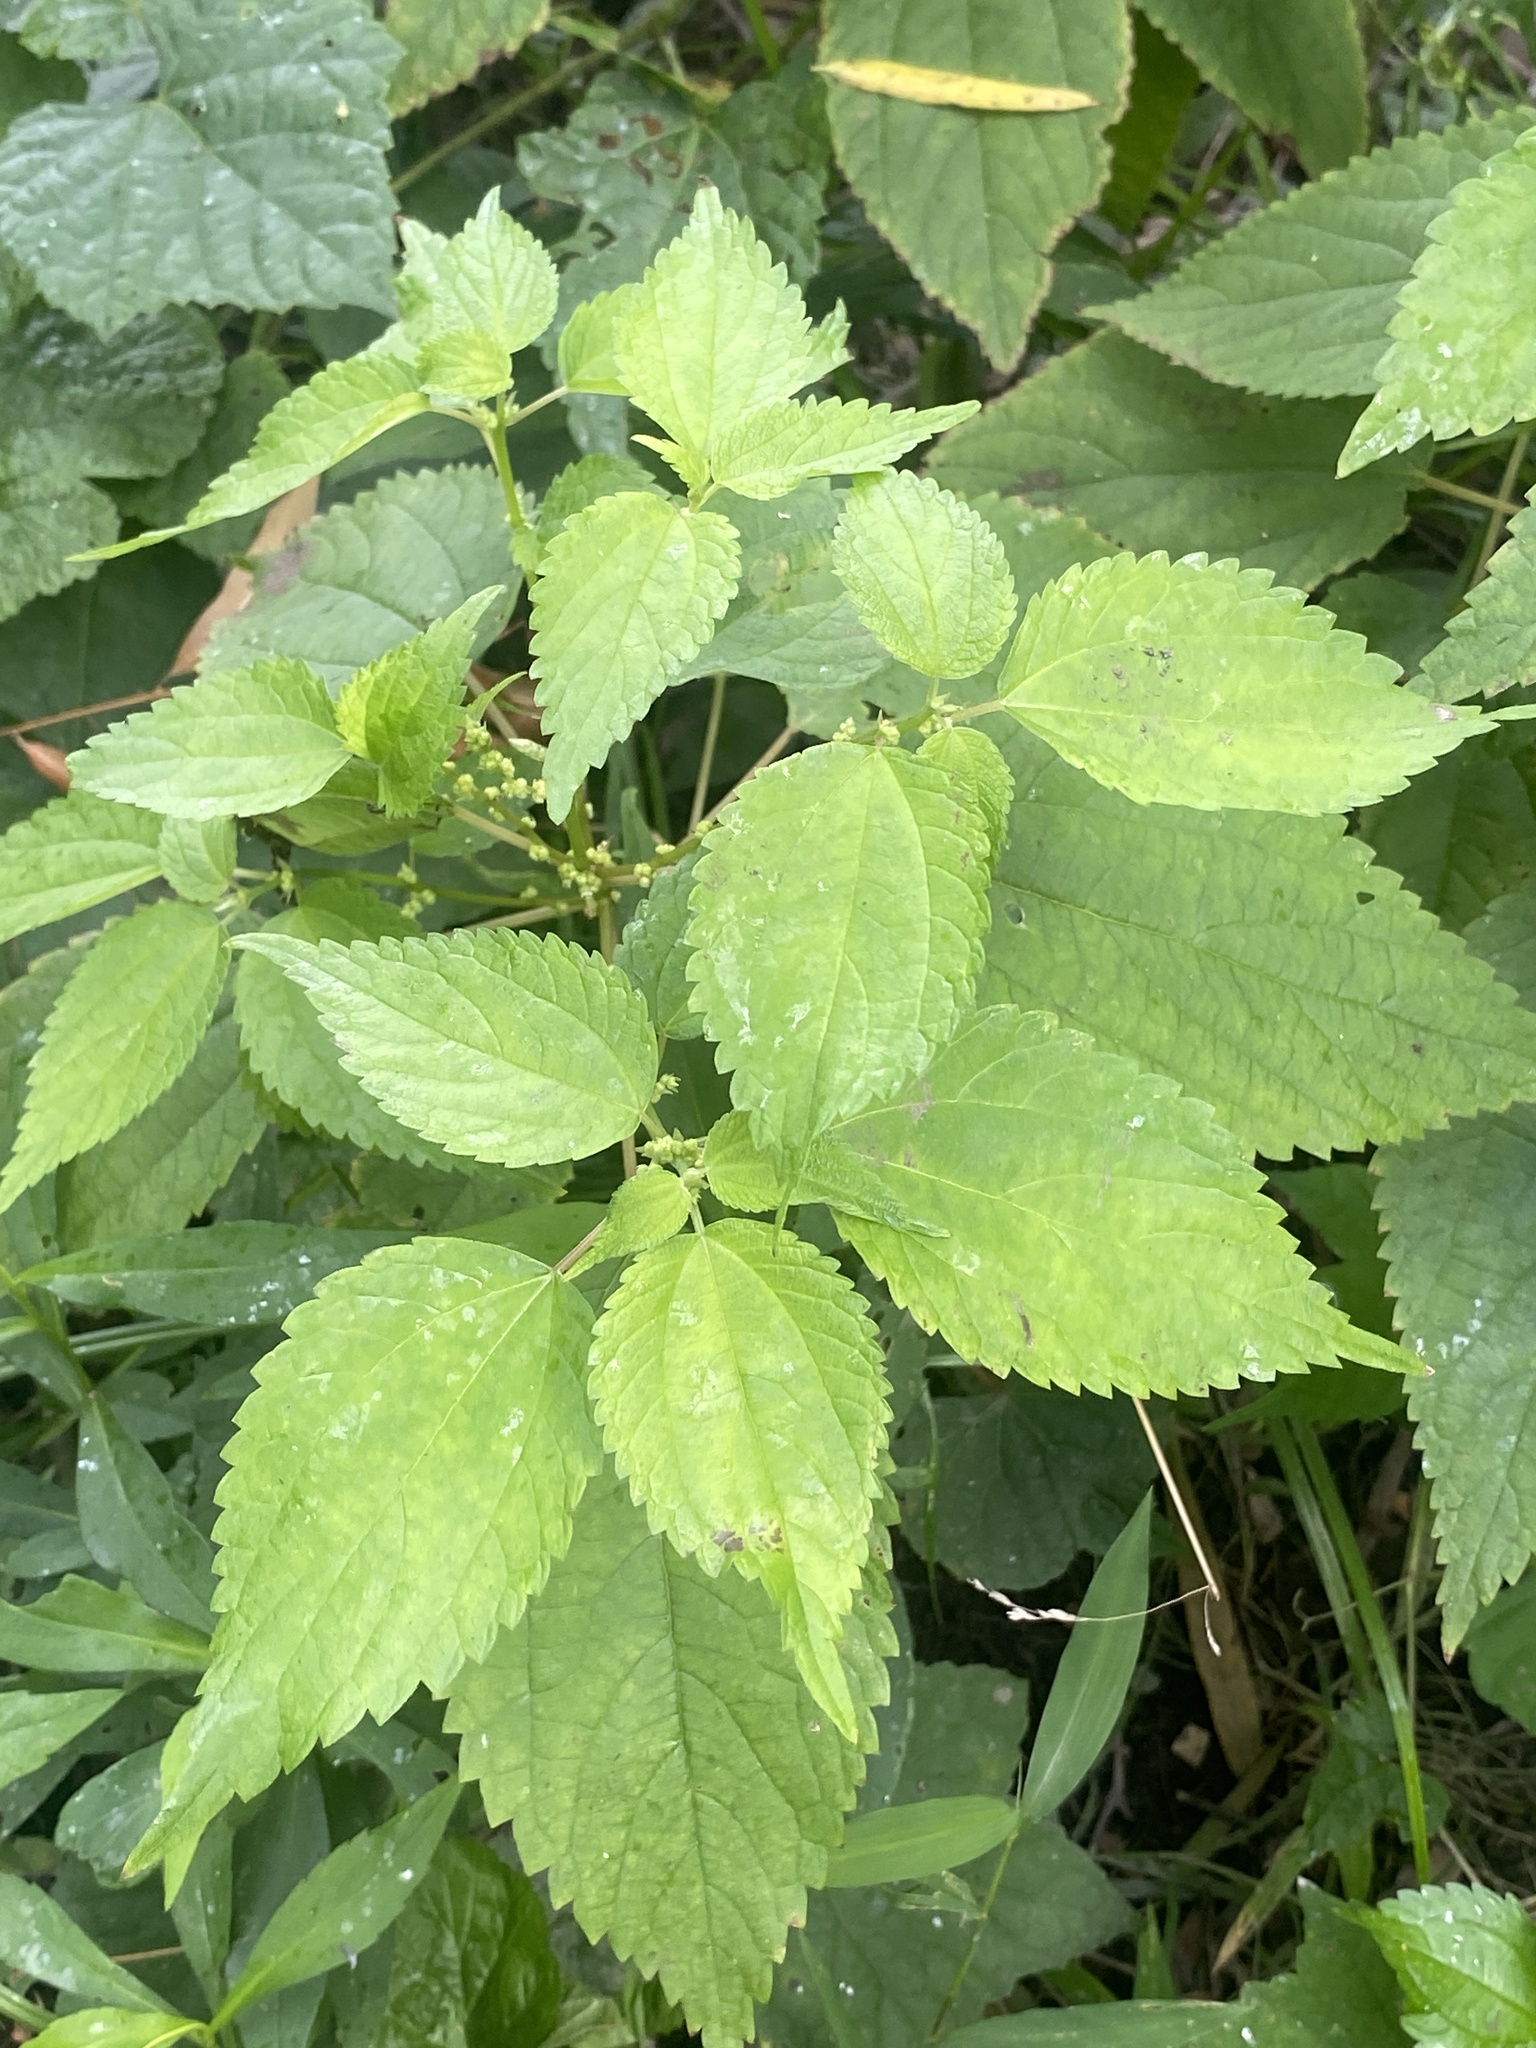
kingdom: Plantae
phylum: Tracheophyta
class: Magnoliopsida
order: Rosales
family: Urticaceae
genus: Boehmeria
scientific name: Boehmeria cylindrica
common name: Bog-hemp
